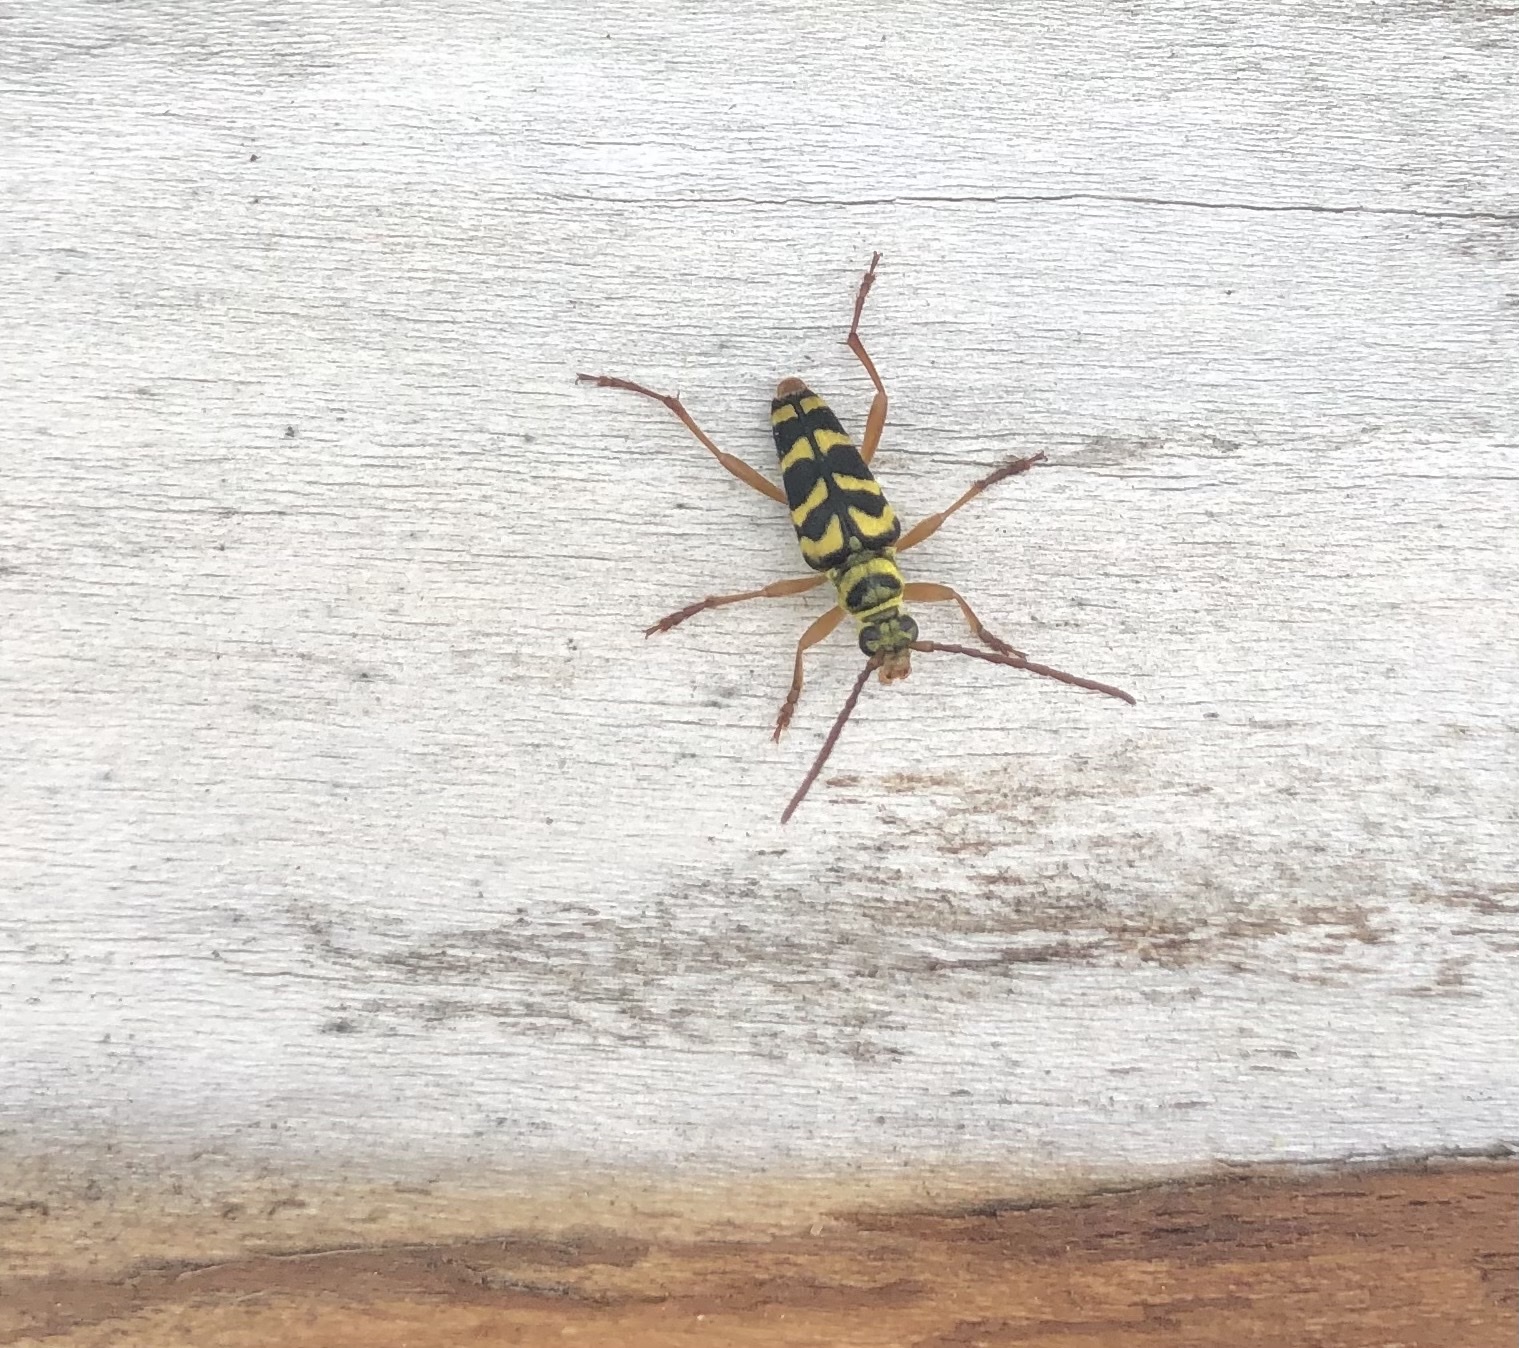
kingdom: Animalia
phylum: Arthropoda
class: Insecta
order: Coleoptera
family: Cerambycidae
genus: Strophiona
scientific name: Strophiona nitens
